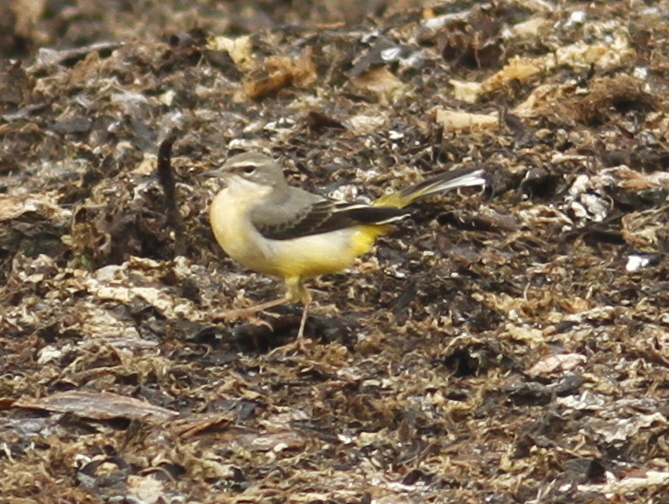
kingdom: Animalia
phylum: Chordata
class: Aves
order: Passeriformes
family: Motacillidae
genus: Motacilla
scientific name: Motacilla cinerea
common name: Grey wagtail
